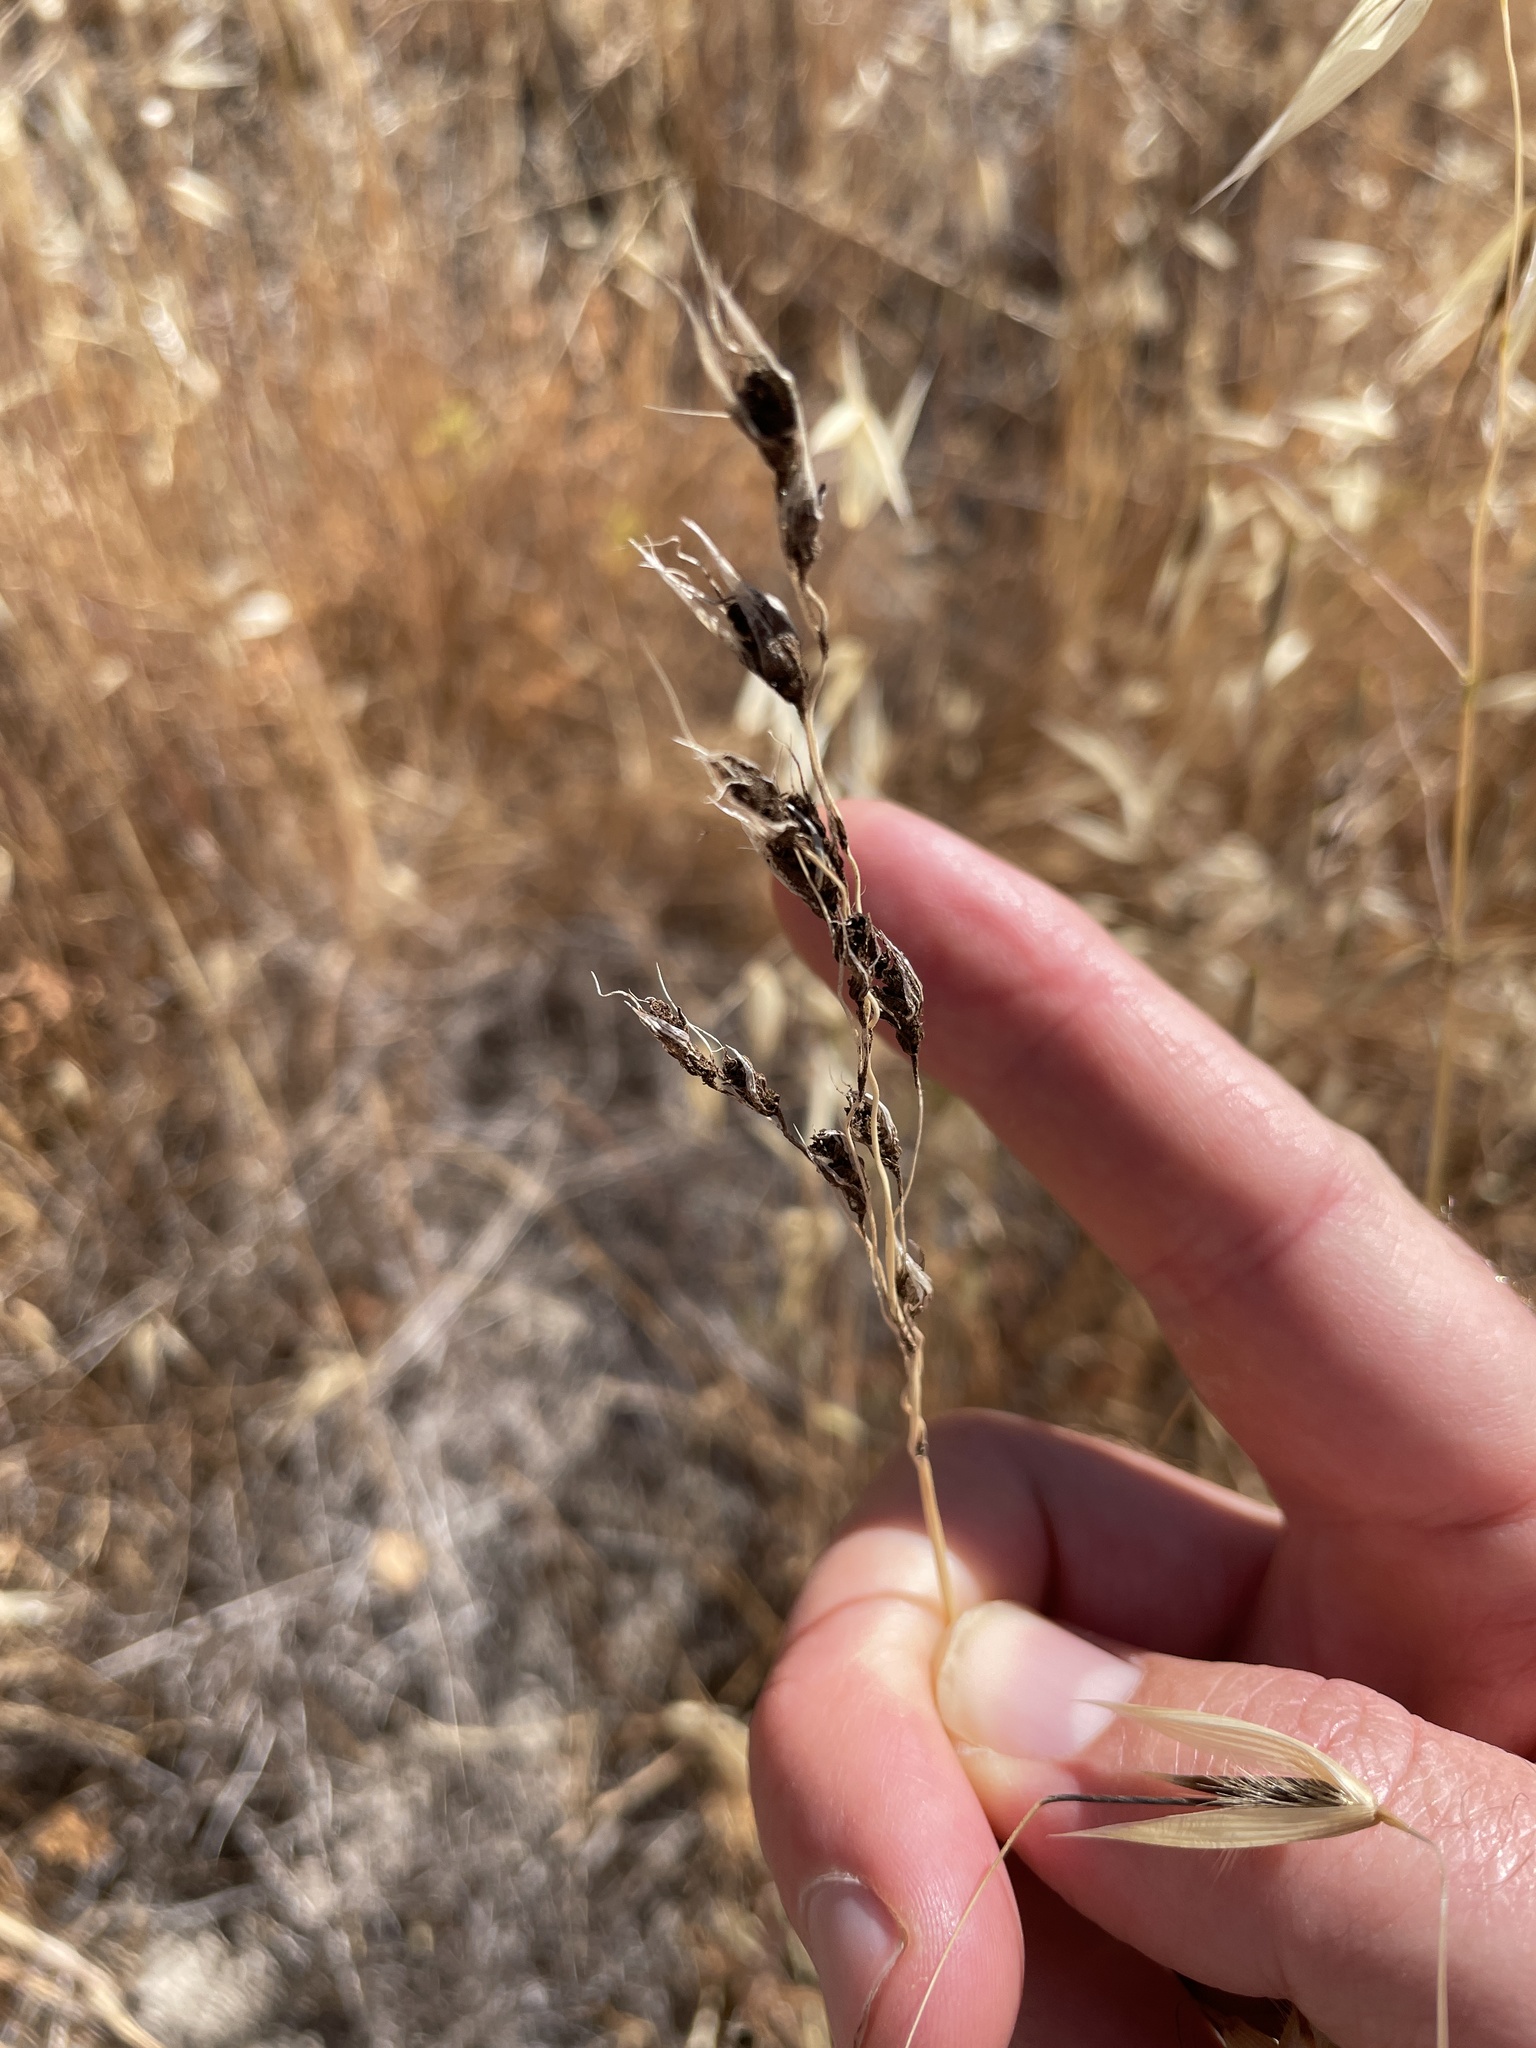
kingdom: Fungi
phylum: Basidiomycota
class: Ustilaginomycetes
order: Ustilaginales
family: Ustilaginaceae
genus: Ustilago
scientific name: Ustilago avenae
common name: Loose smut of oats & oat grass
